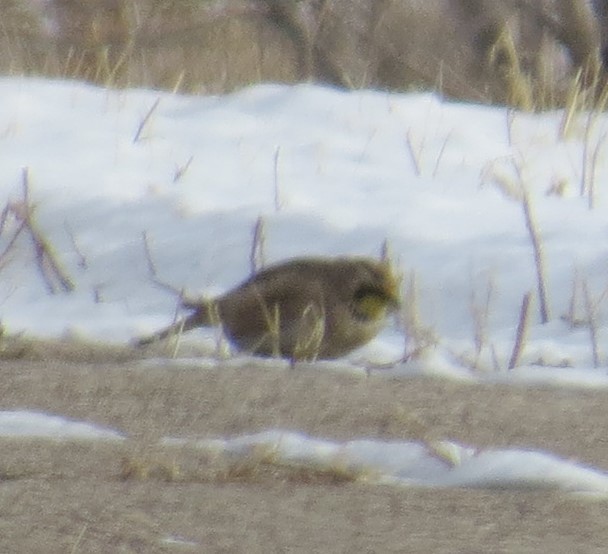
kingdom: Animalia
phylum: Chordata
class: Aves
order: Passeriformes
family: Alaudidae
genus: Eremophila
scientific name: Eremophila alpestris
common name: Horned lark
